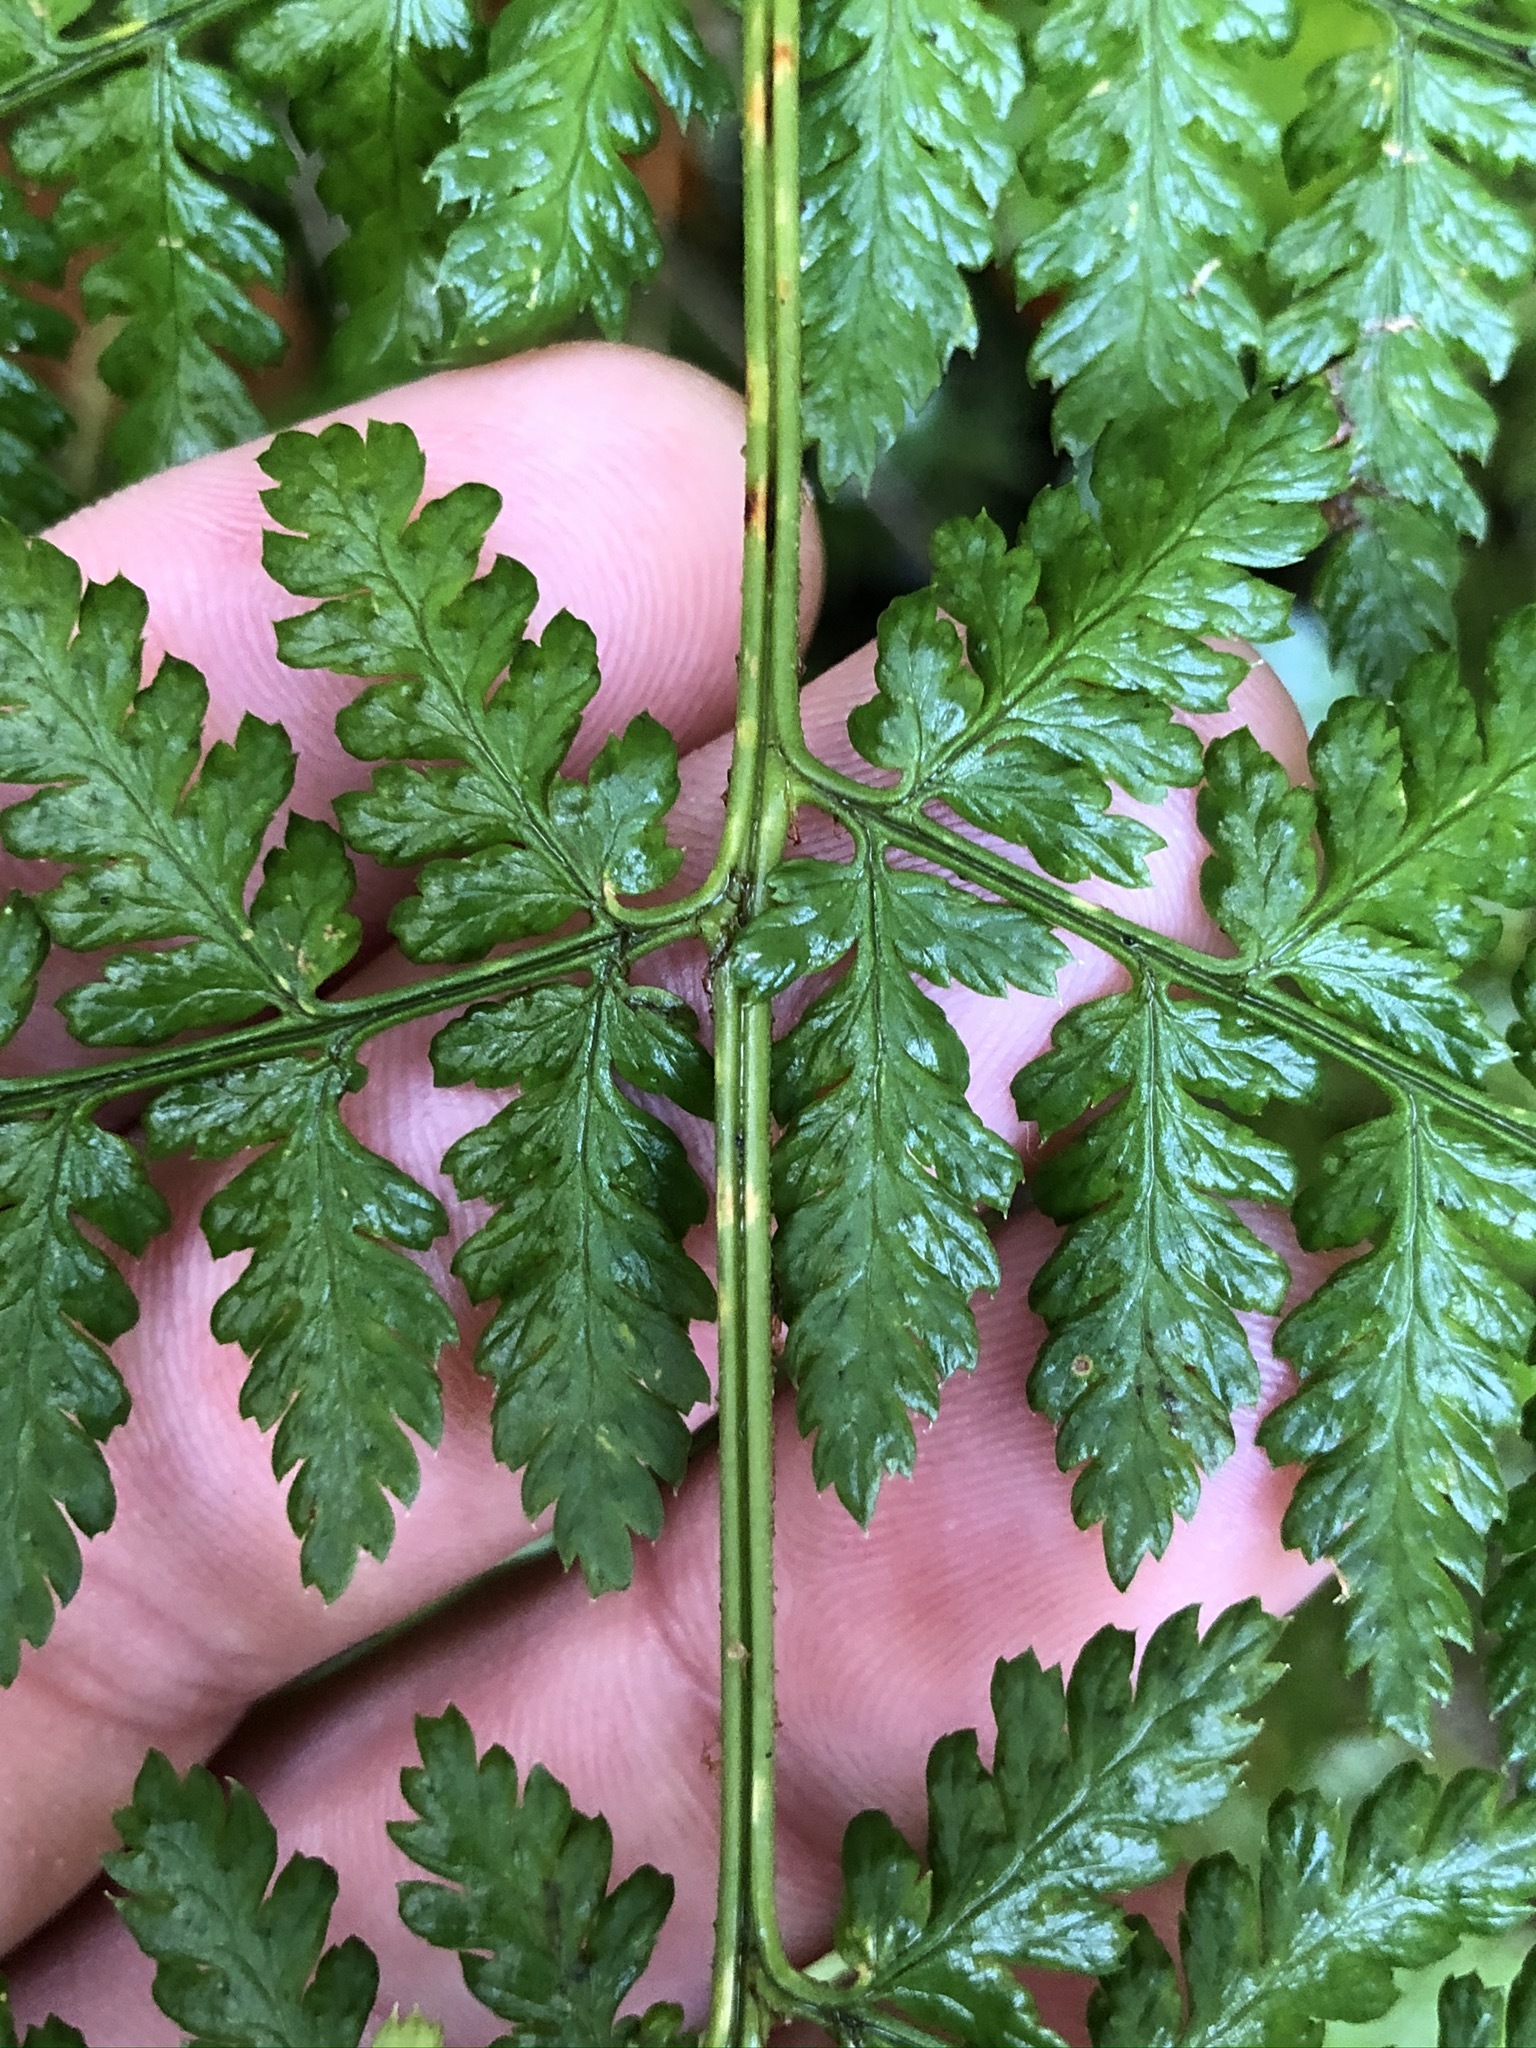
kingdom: Plantae
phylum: Tracheophyta
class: Polypodiopsida
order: Polypodiales
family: Dryopteridaceae
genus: Dryopteris
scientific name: Dryopteris dilatata
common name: Broad buckler-fern
